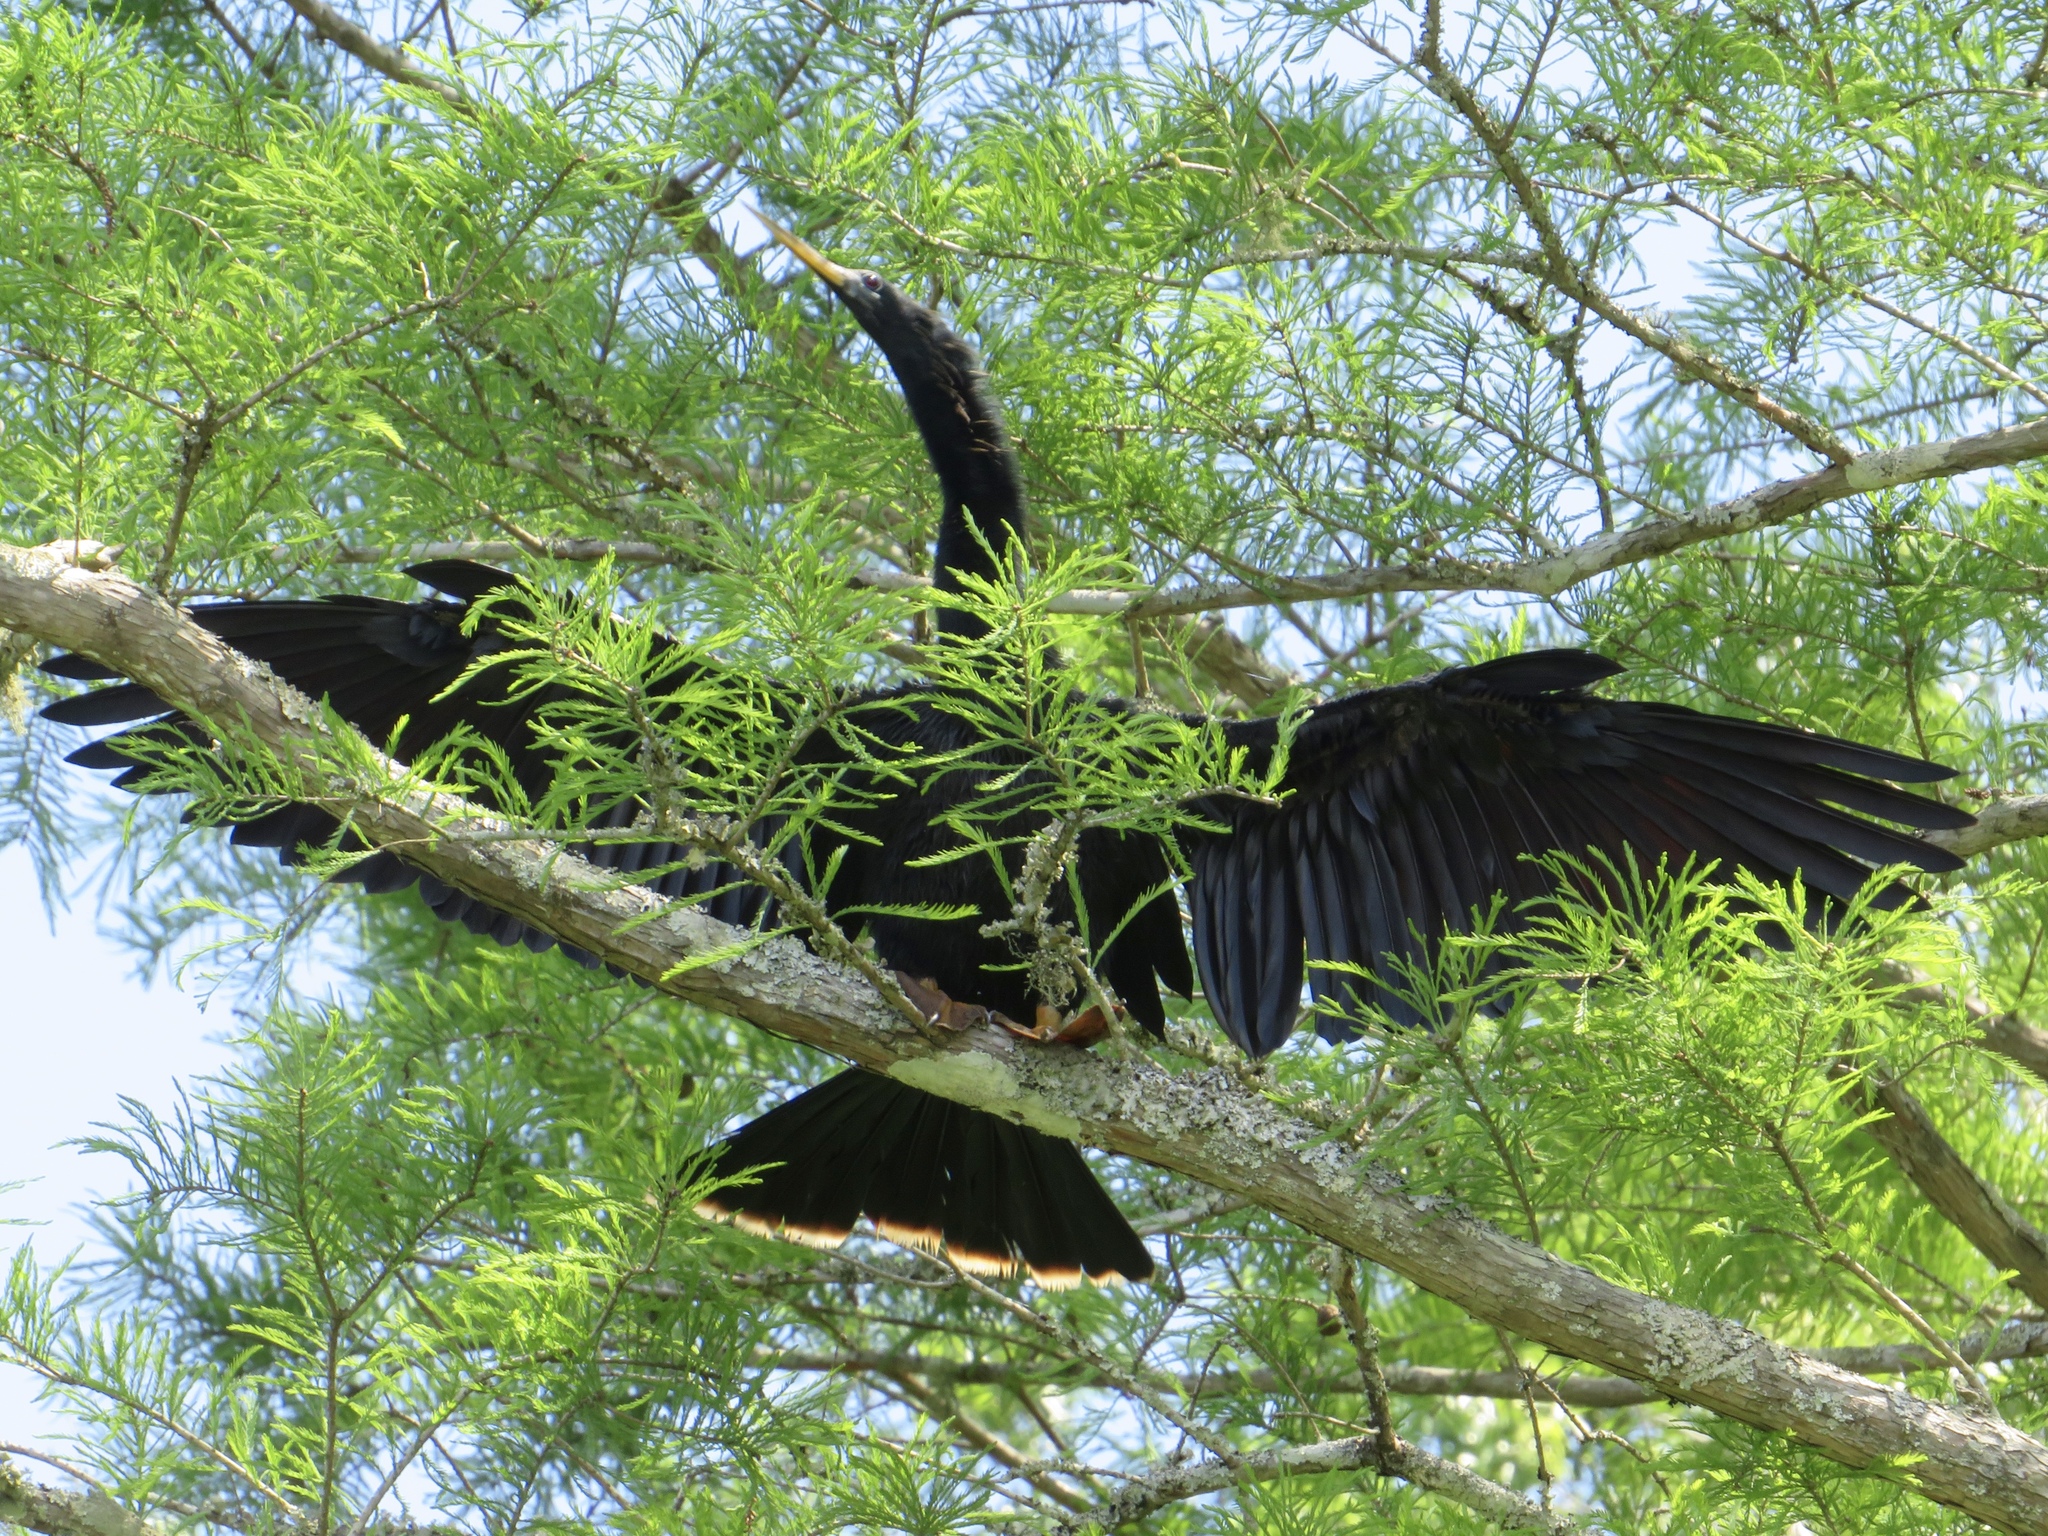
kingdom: Animalia
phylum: Chordata
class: Aves
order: Suliformes
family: Anhingidae
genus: Anhinga
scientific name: Anhinga anhinga
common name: Anhinga
